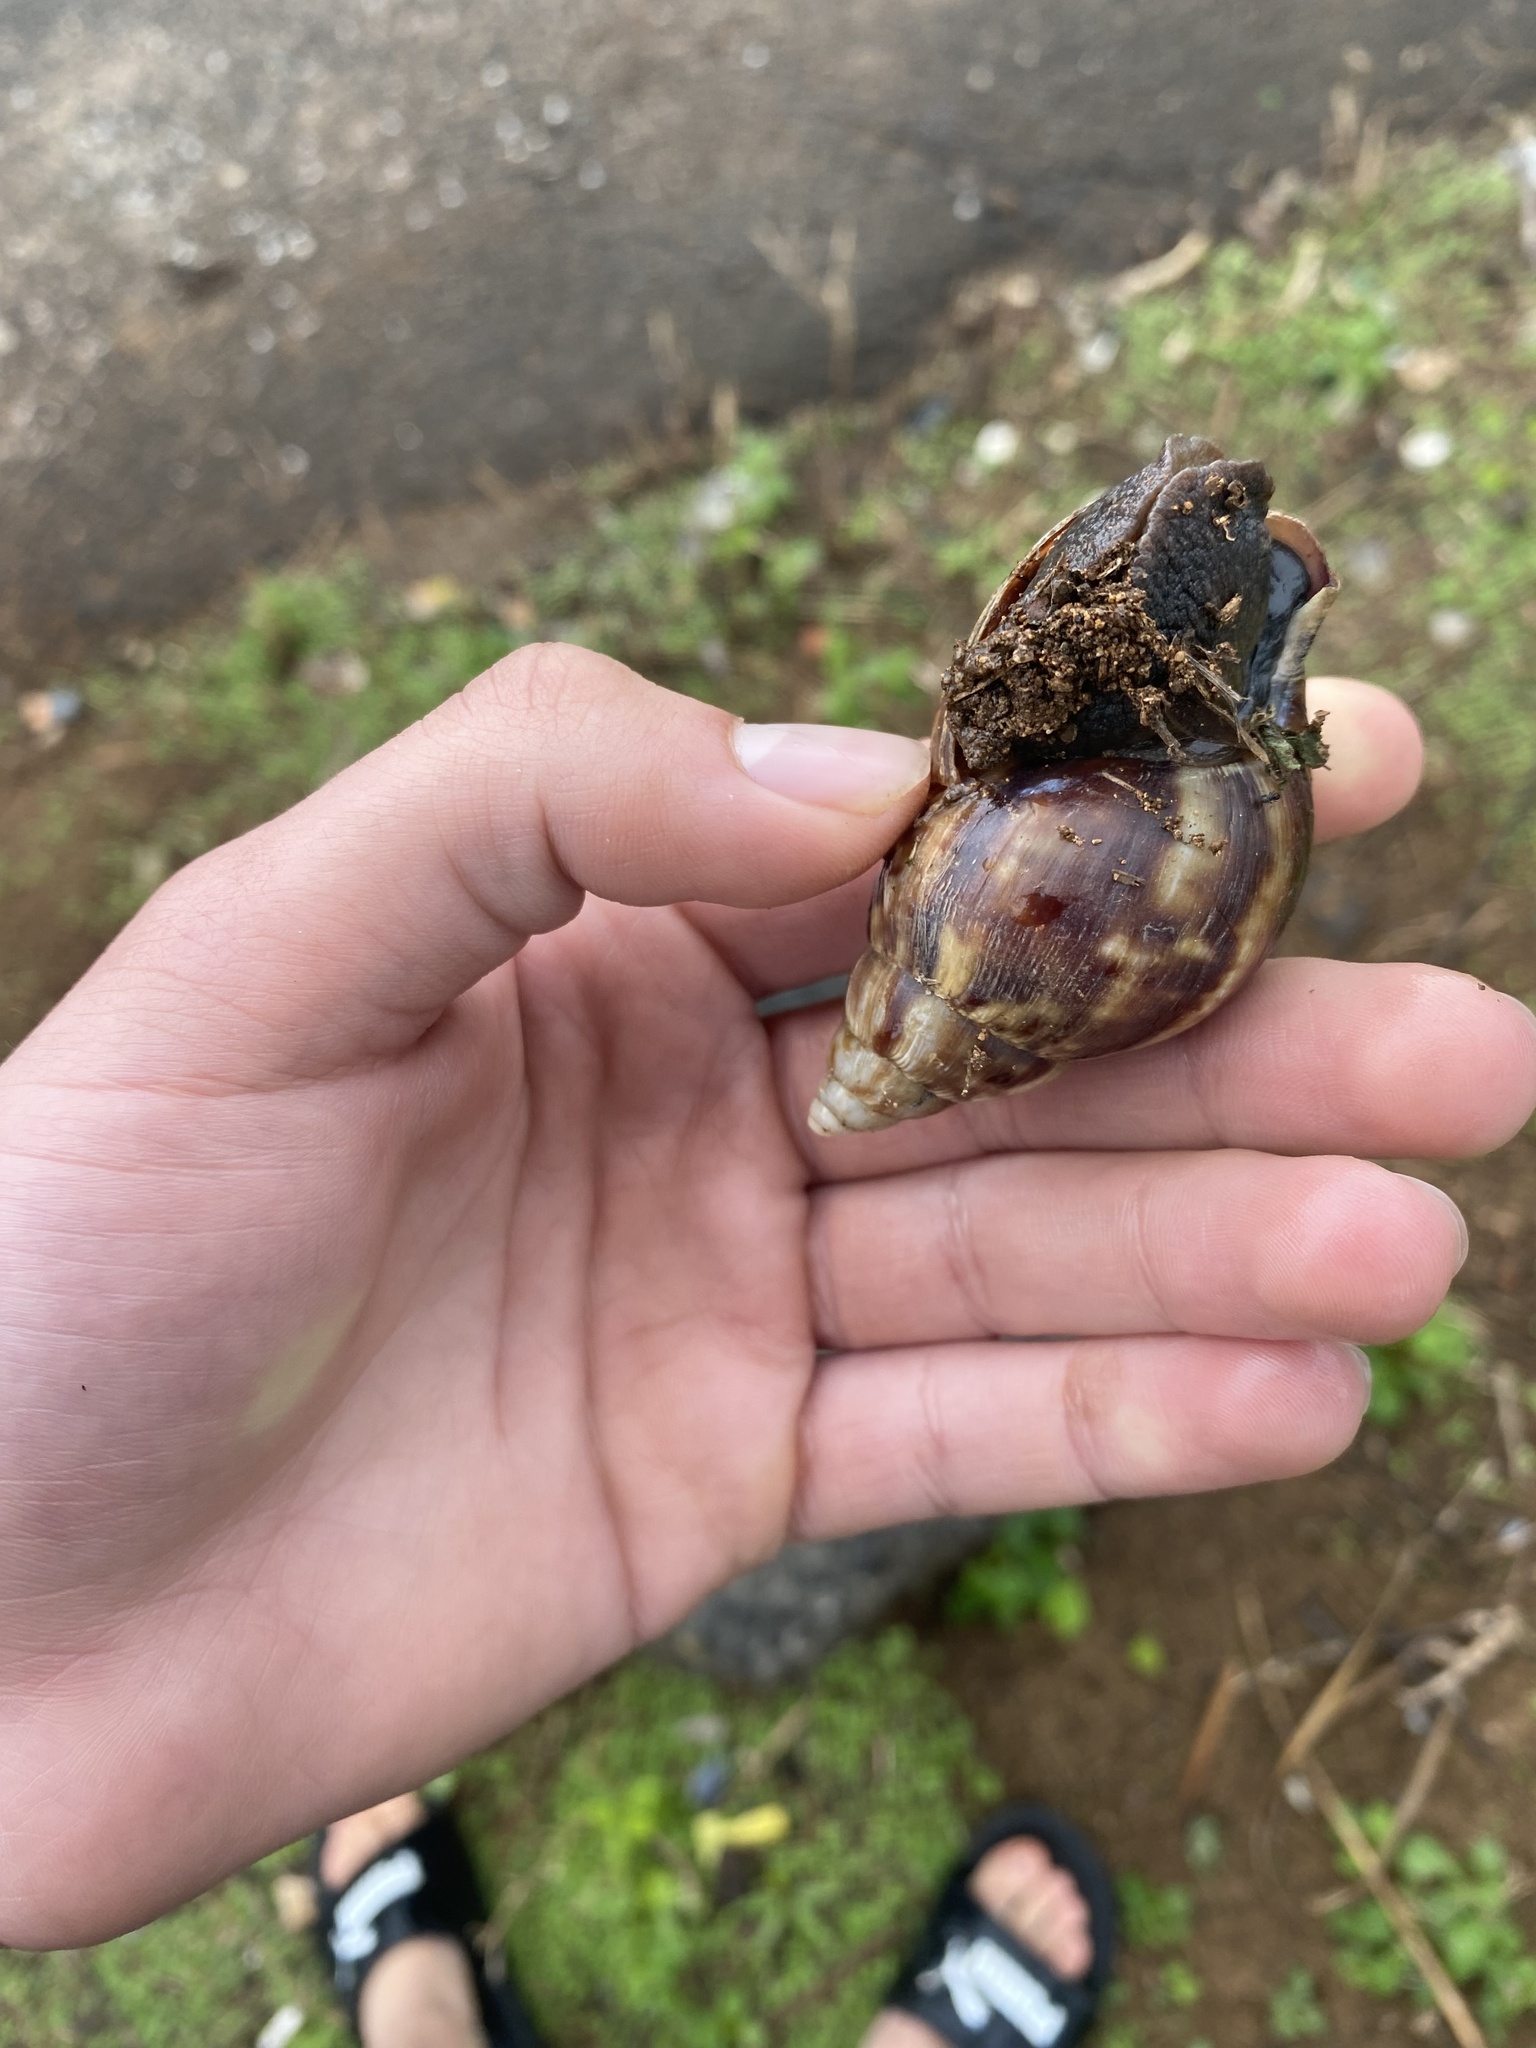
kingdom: Animalia
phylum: Mollusca
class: Gastropoda
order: Stylommatophora
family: Achatinidae
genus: Lissachatina
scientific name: Lissachatina fulica
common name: Giant african snail
